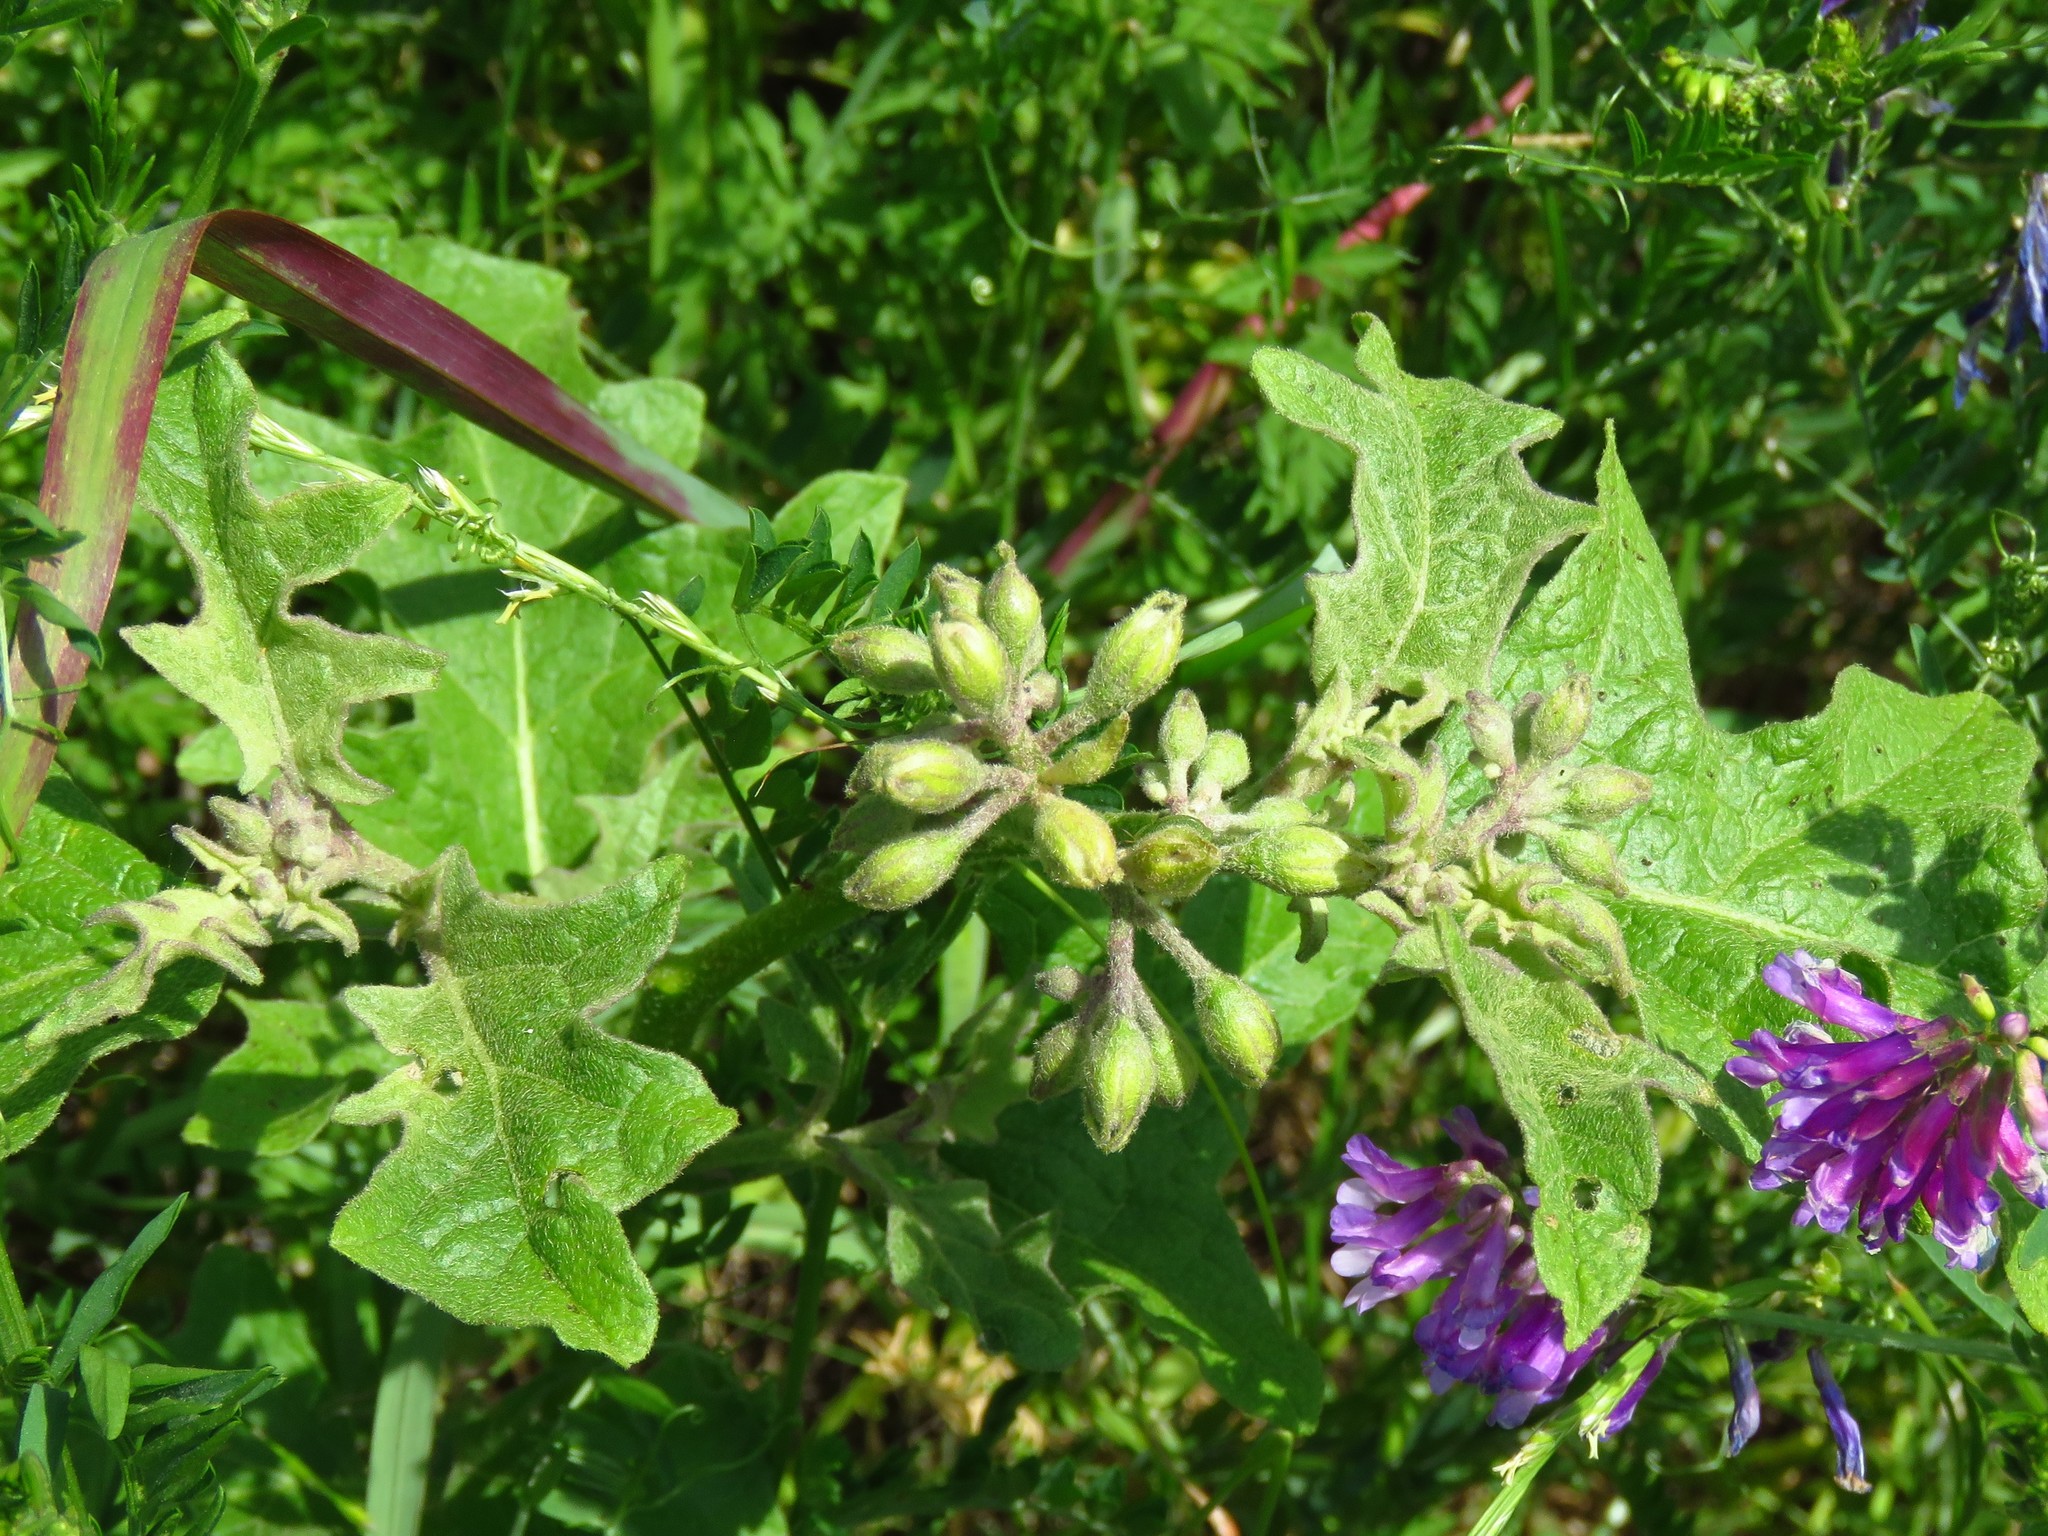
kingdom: Plantae
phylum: Tracheophyta
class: Magnoliopsida
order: Solanales
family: Solanaceae
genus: Solanum
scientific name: Solanum dimidiatum
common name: Carolina horse-nettle
